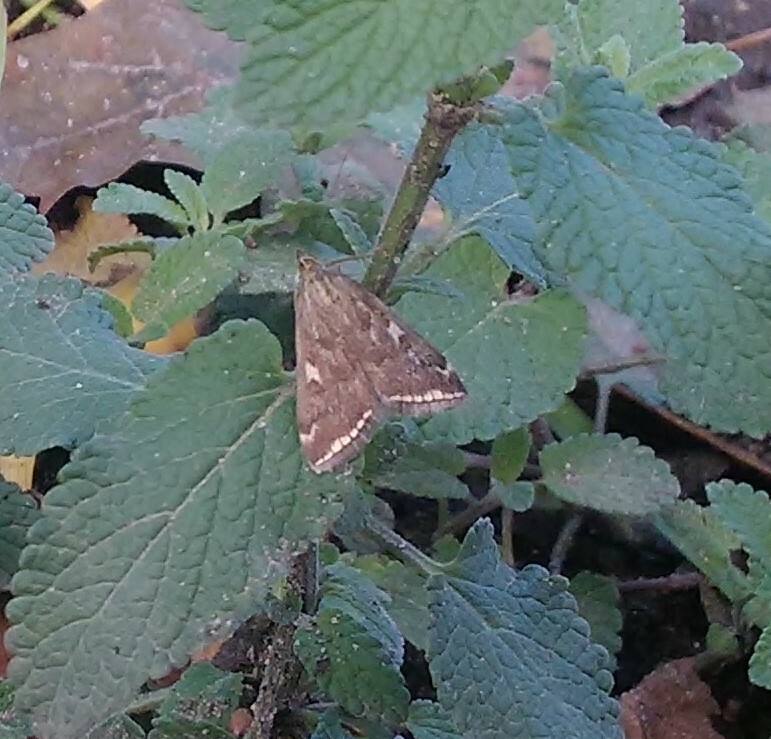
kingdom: Animalia
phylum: Arthropoda
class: Insecta
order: Lepidoptera
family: Crambidae
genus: Loxostege
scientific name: Loxostege sticticalis
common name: Crambid moth
